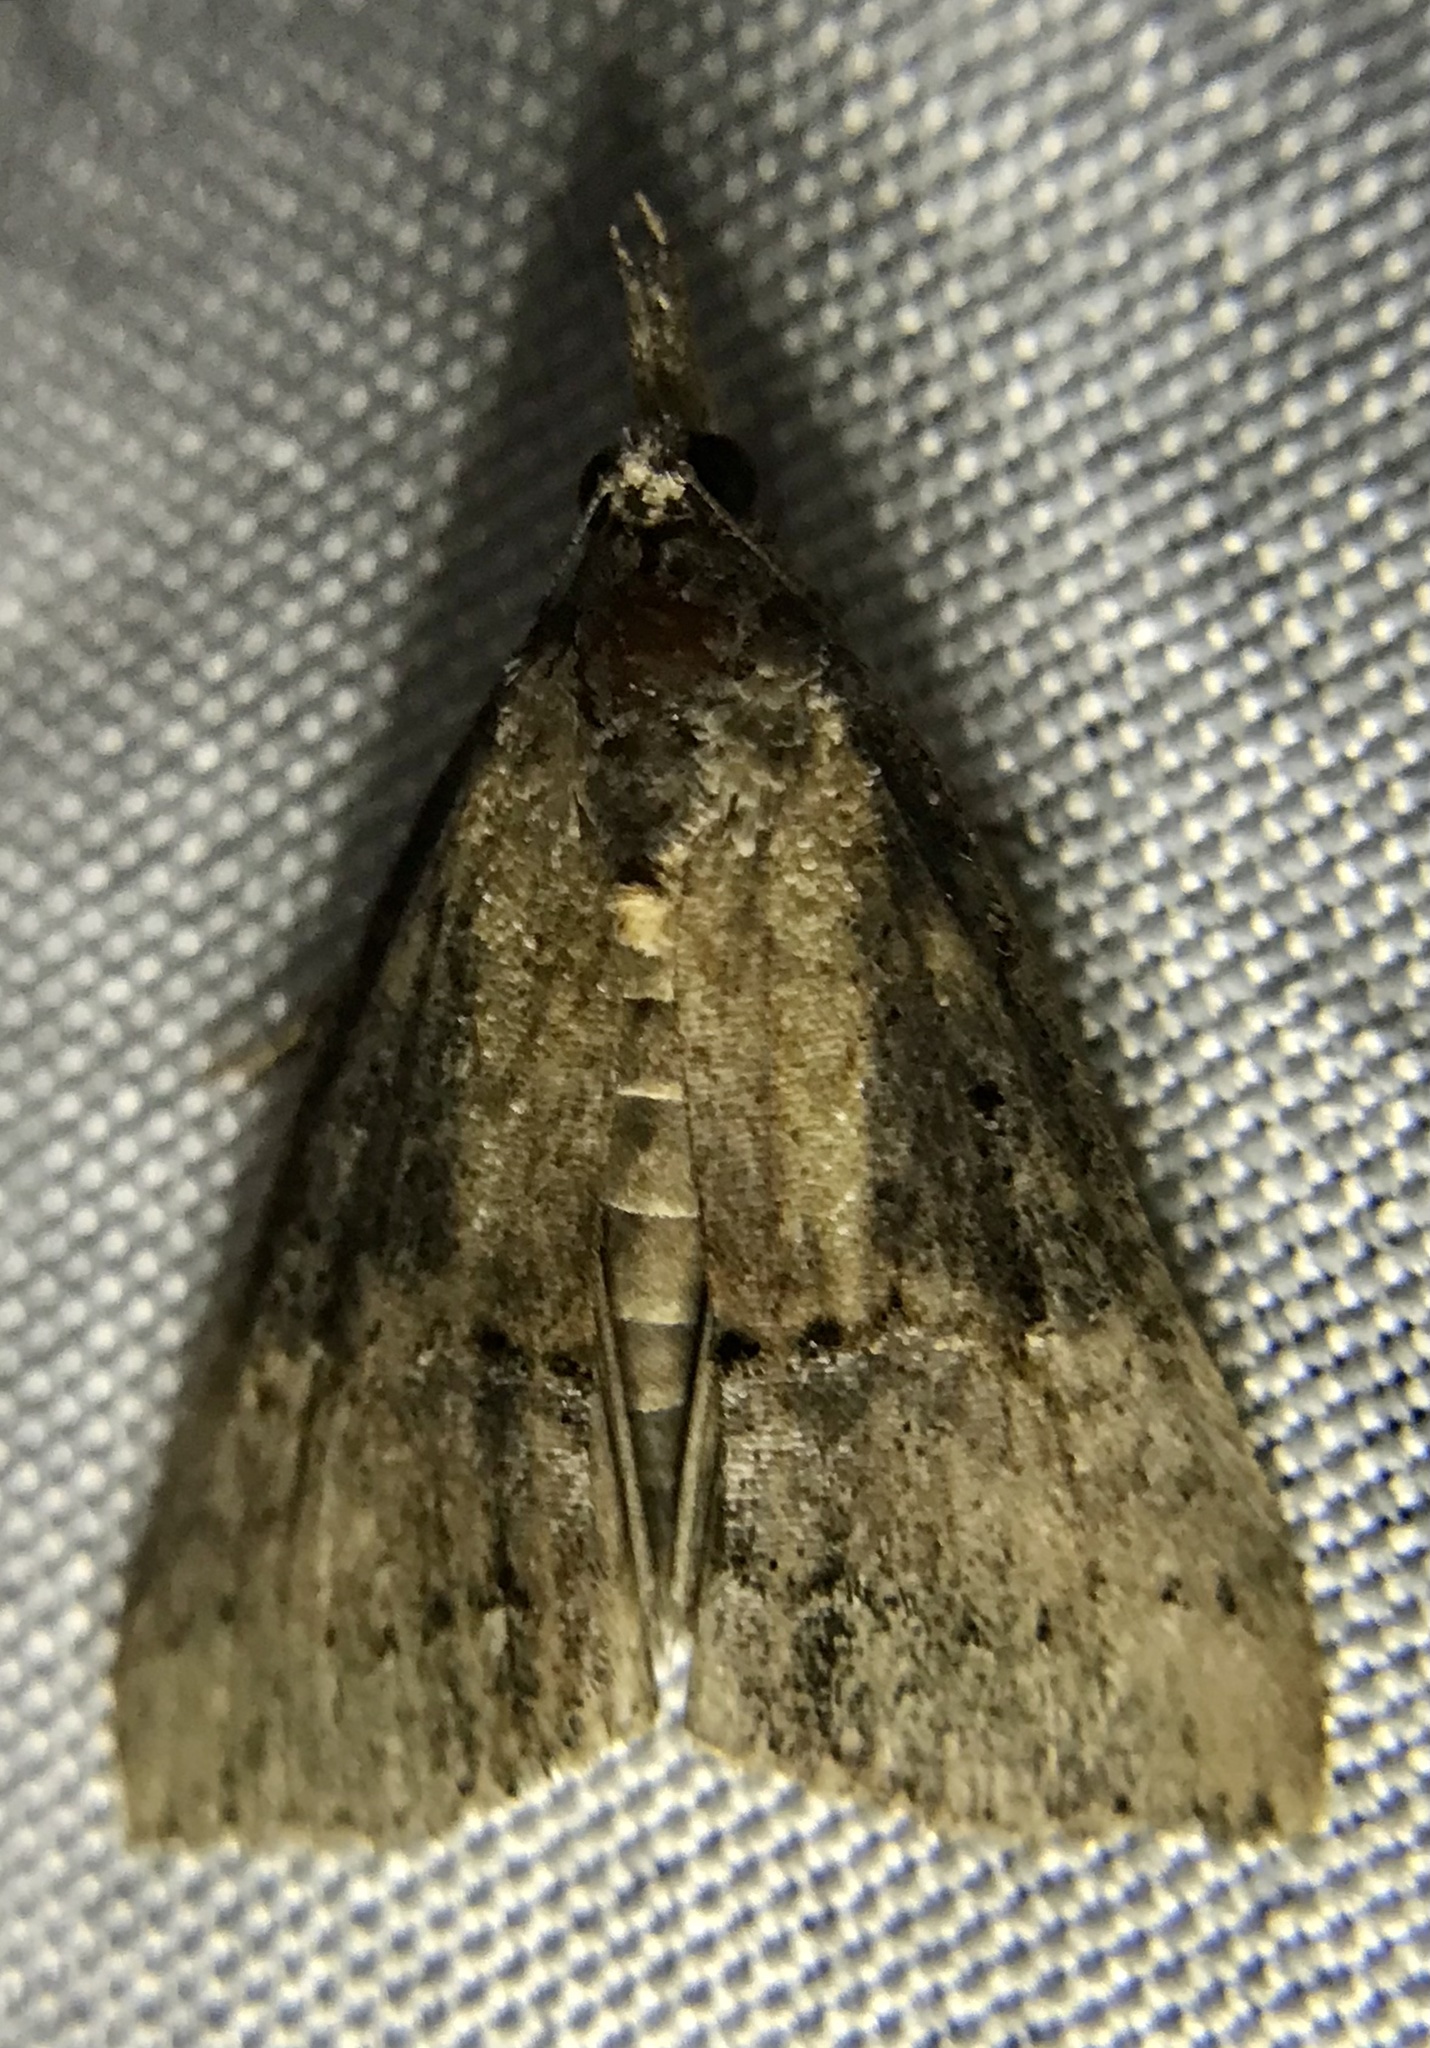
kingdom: Animalia
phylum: Arthropoda
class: Insecta
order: Lepidoptera
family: Erebidae
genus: Hypena
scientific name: Hypena scabra
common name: Green cloverworm
